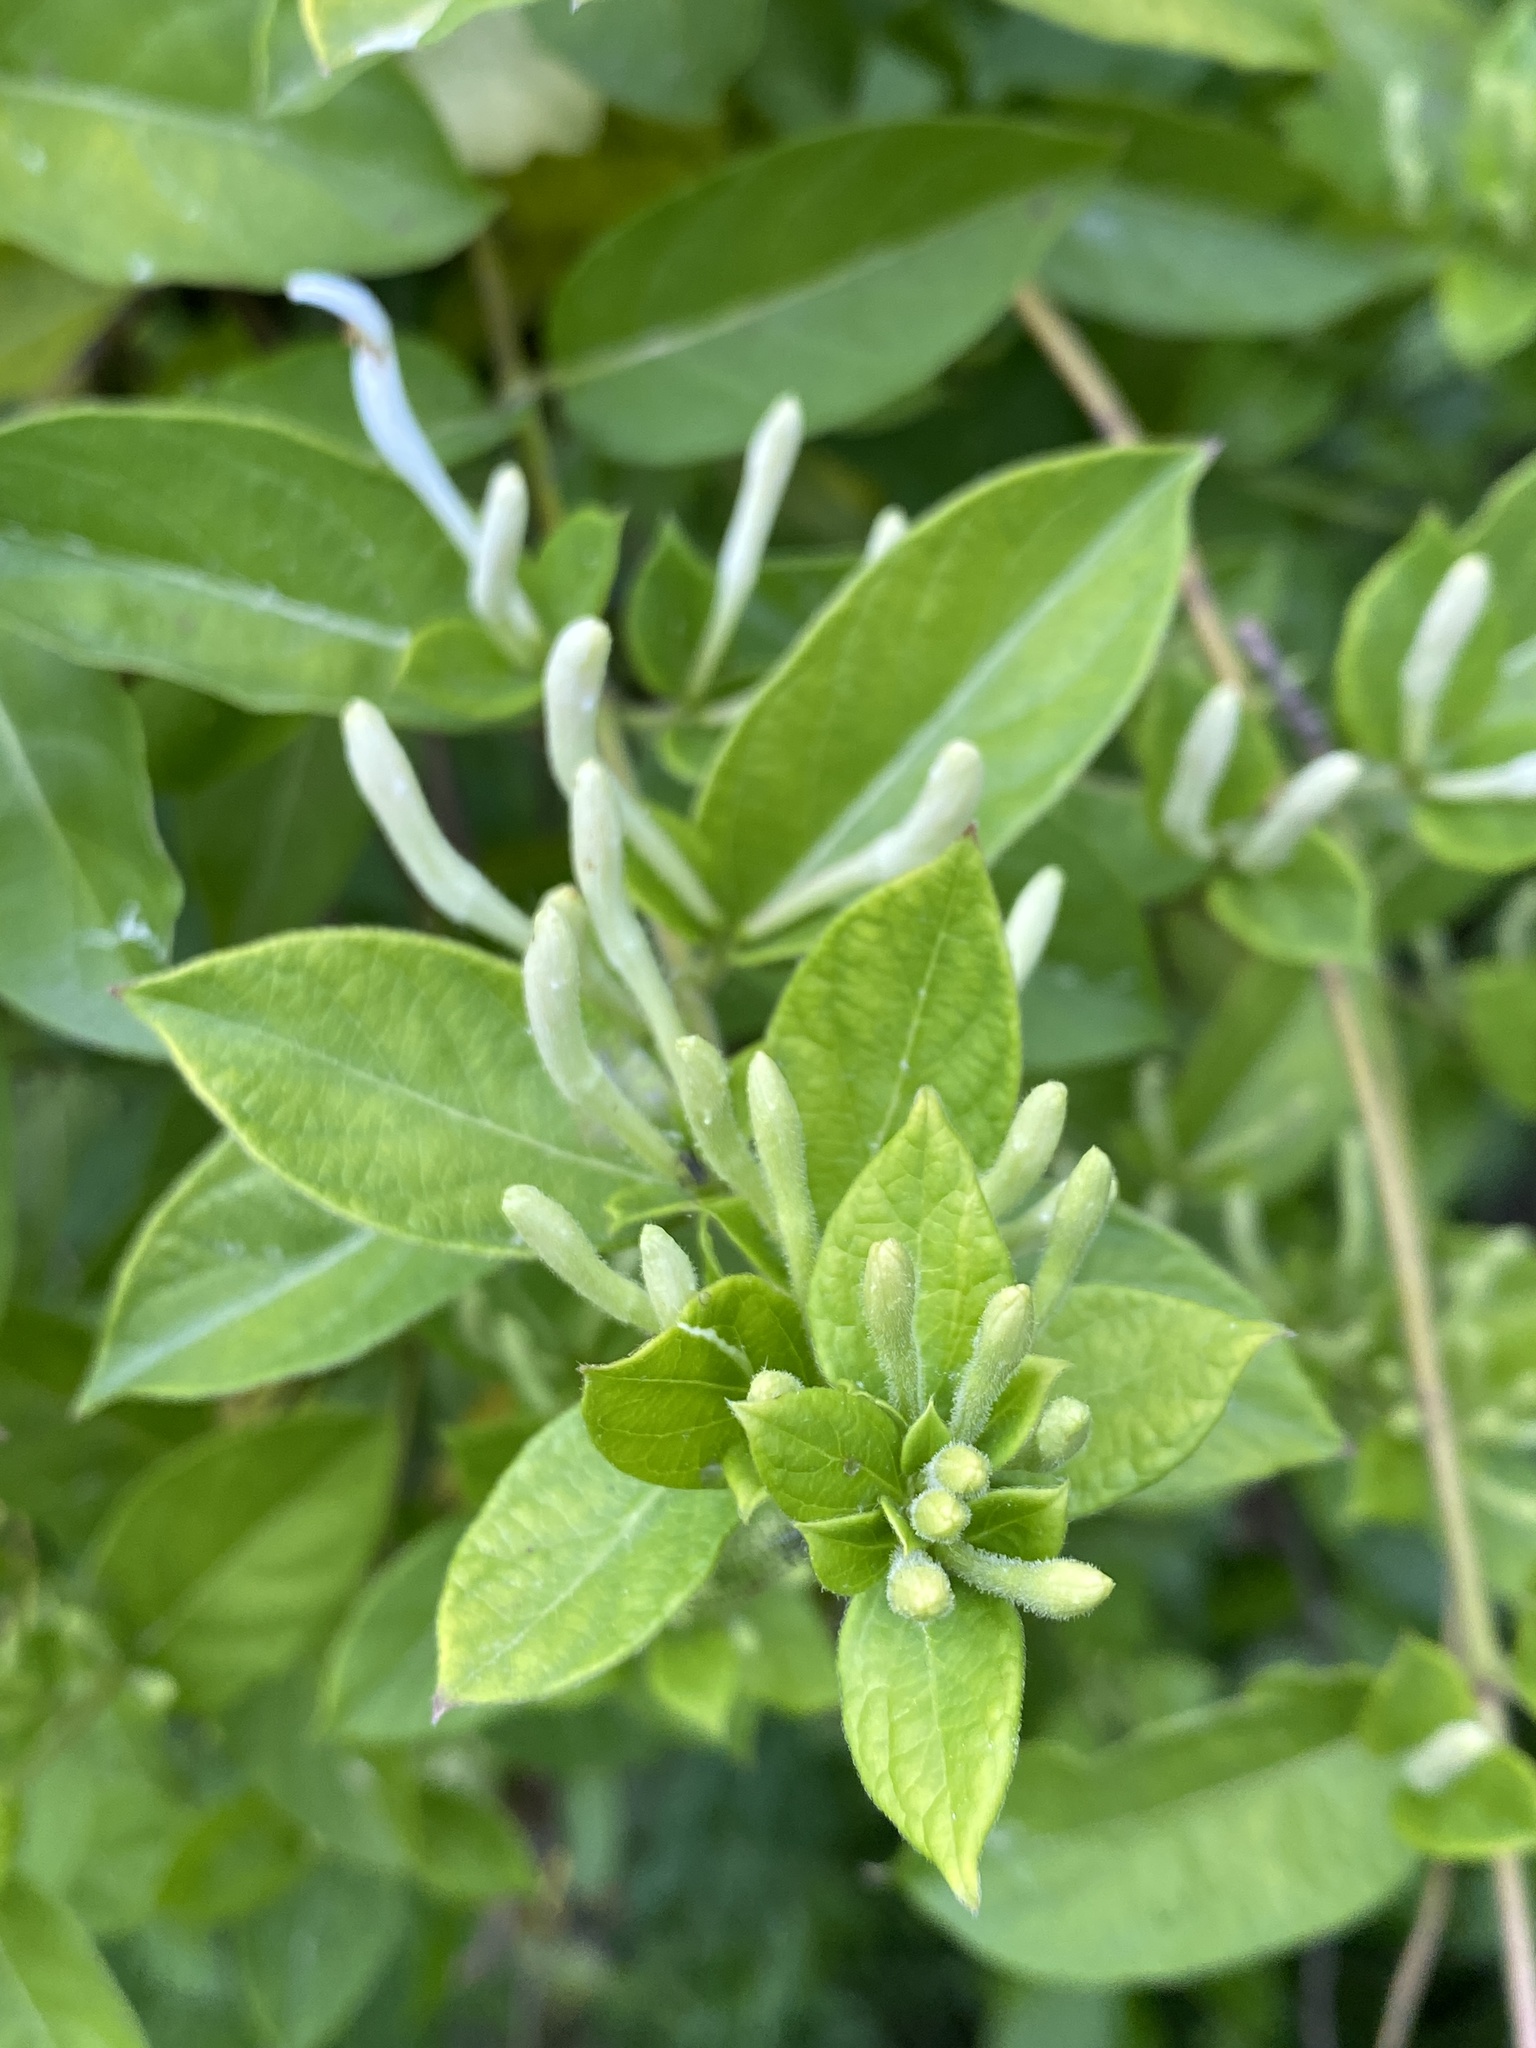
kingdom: Plantae
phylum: Tracheophyta
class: Magnoliopsida
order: Dipsacales
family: Caprifoliaceae
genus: Lonicera
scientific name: Lonicera japonica
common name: Japanese honeysuckle
